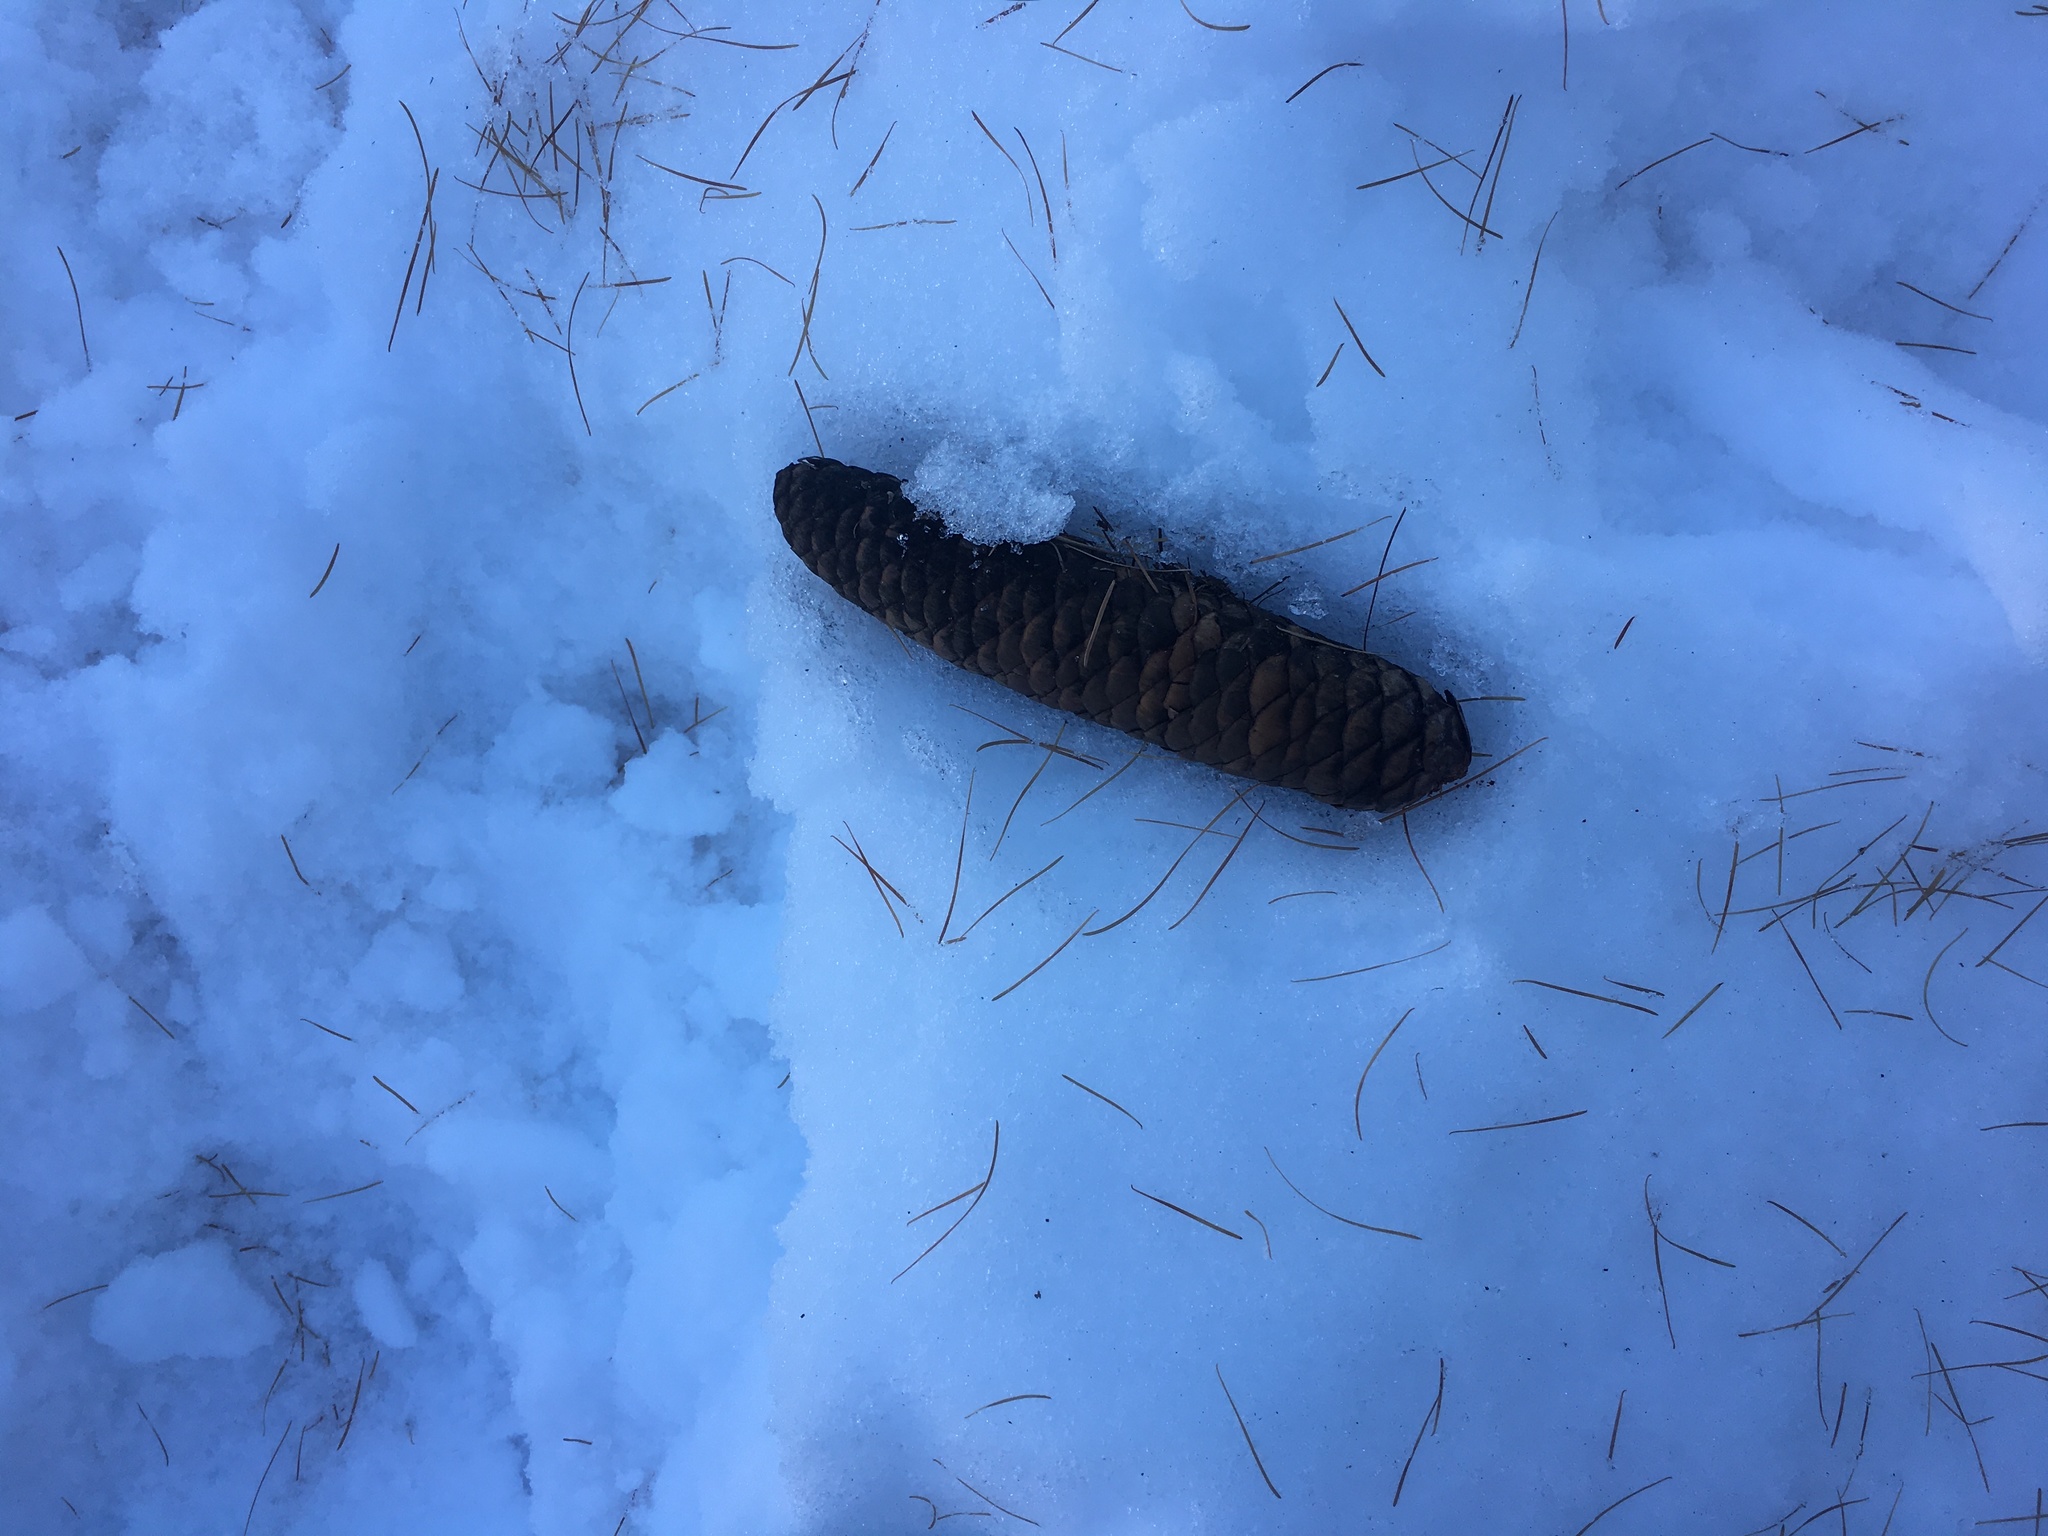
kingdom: Plantae
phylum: Tracheophyta
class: Pinopsida
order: Pinales
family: Pinaceae
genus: Picea
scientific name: Picea abies
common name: Norway spruce
